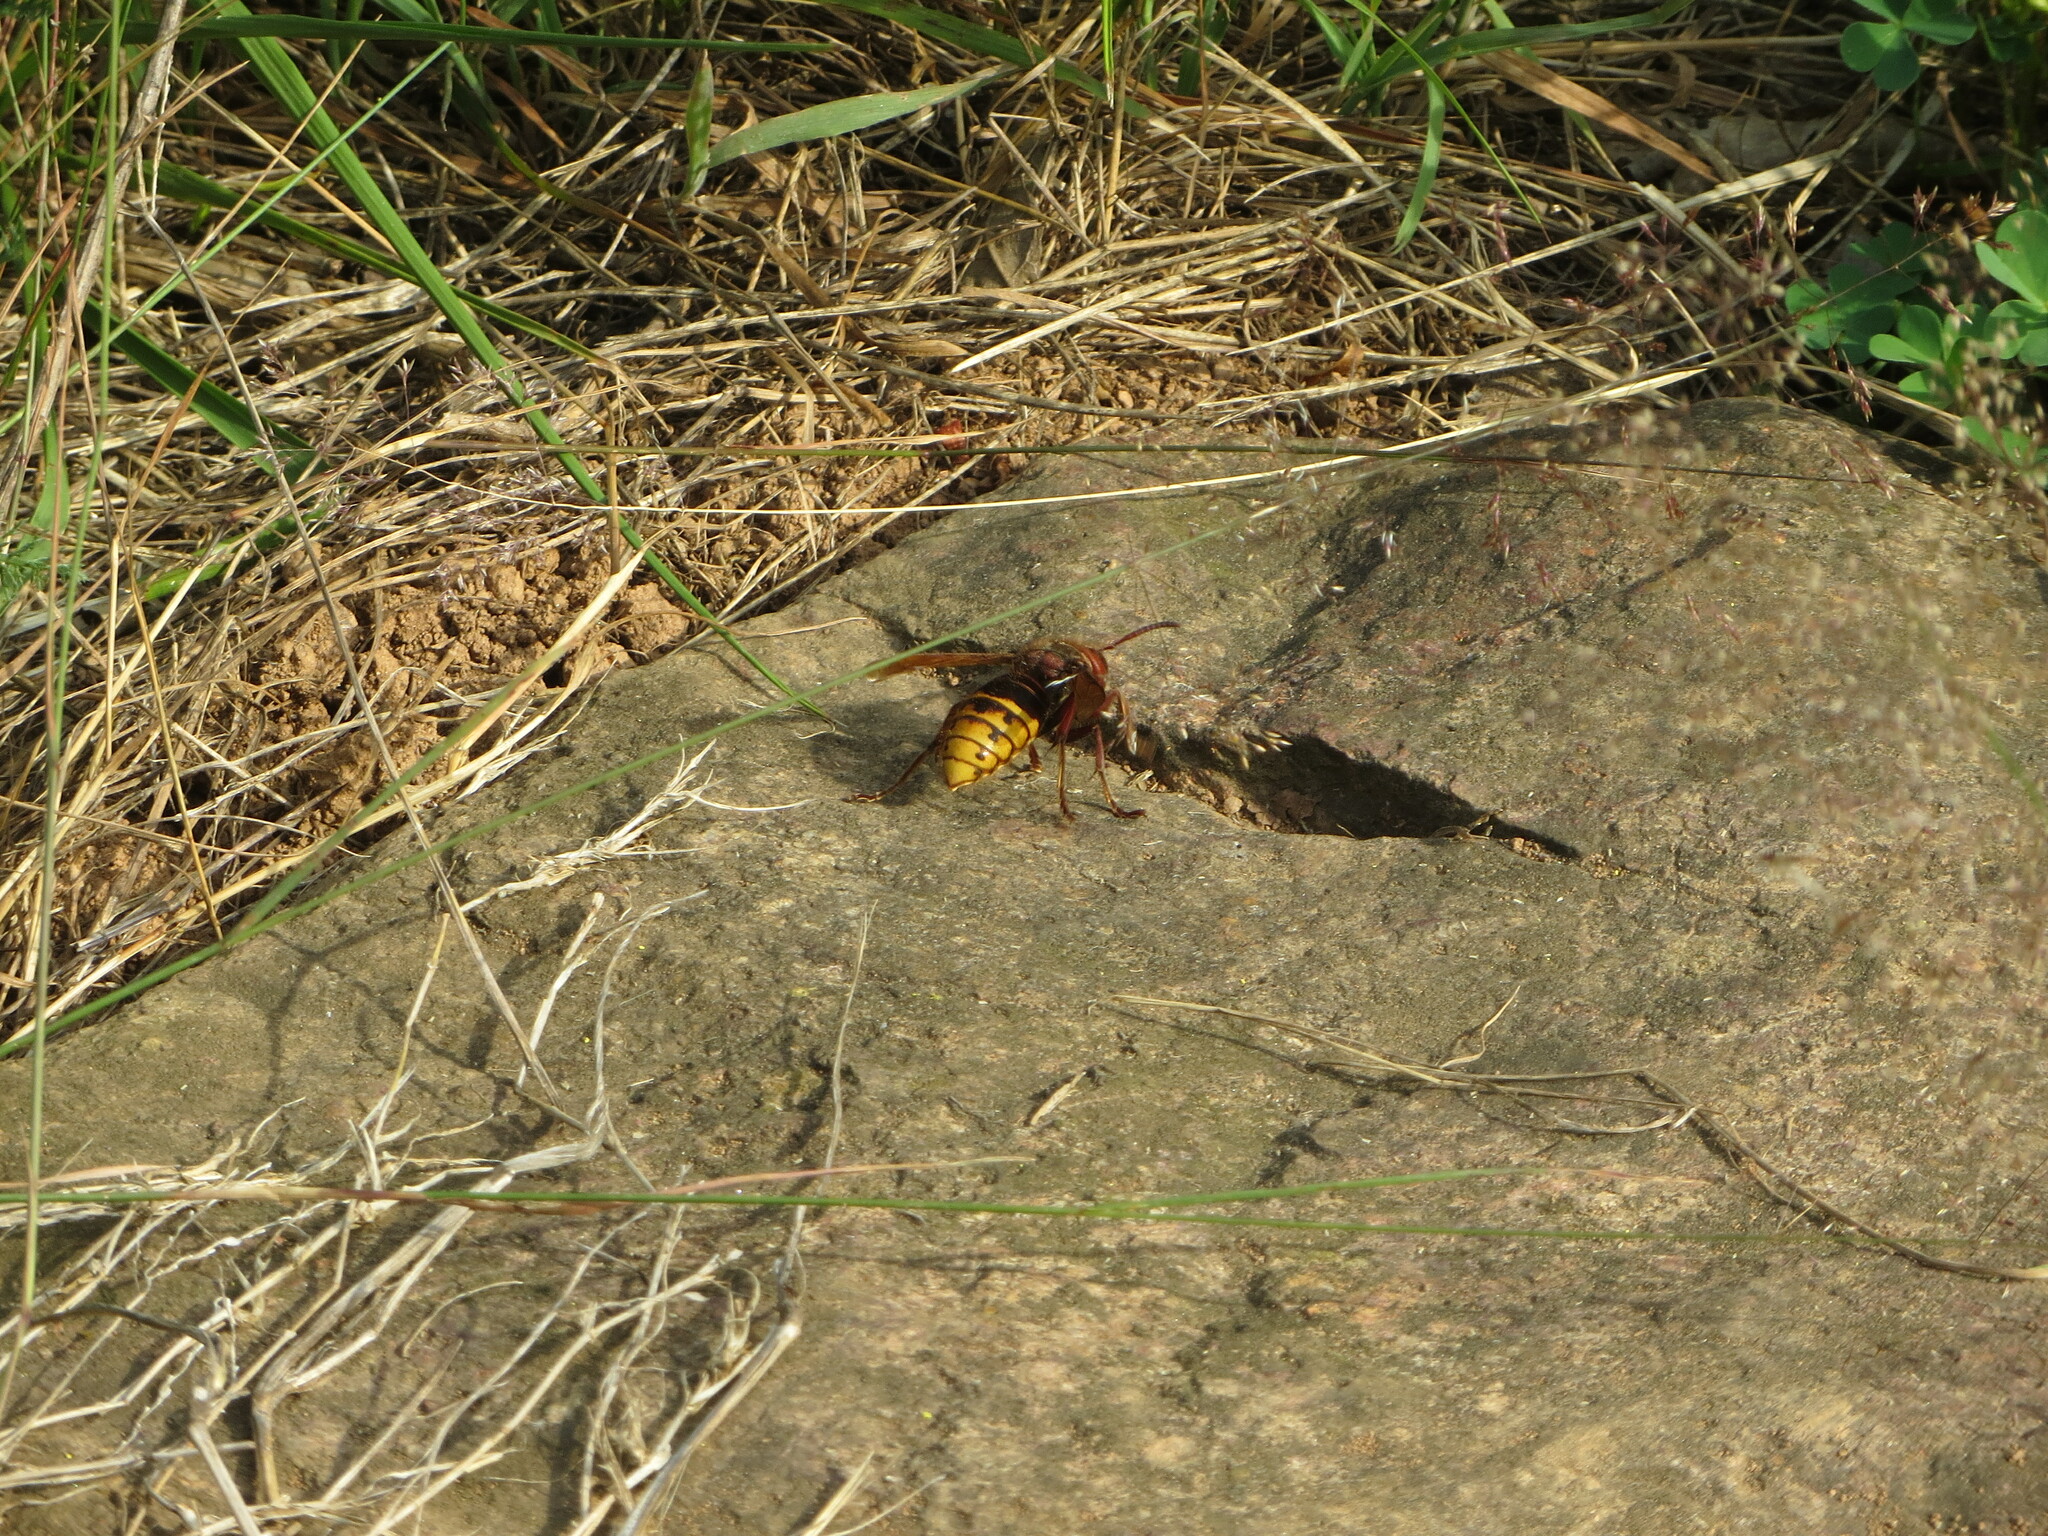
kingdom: Animalia
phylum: Arthropoda
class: Insecta
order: Hymenoptera
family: Vespidae
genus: Vespa
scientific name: Vespa crabro
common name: Hornet
